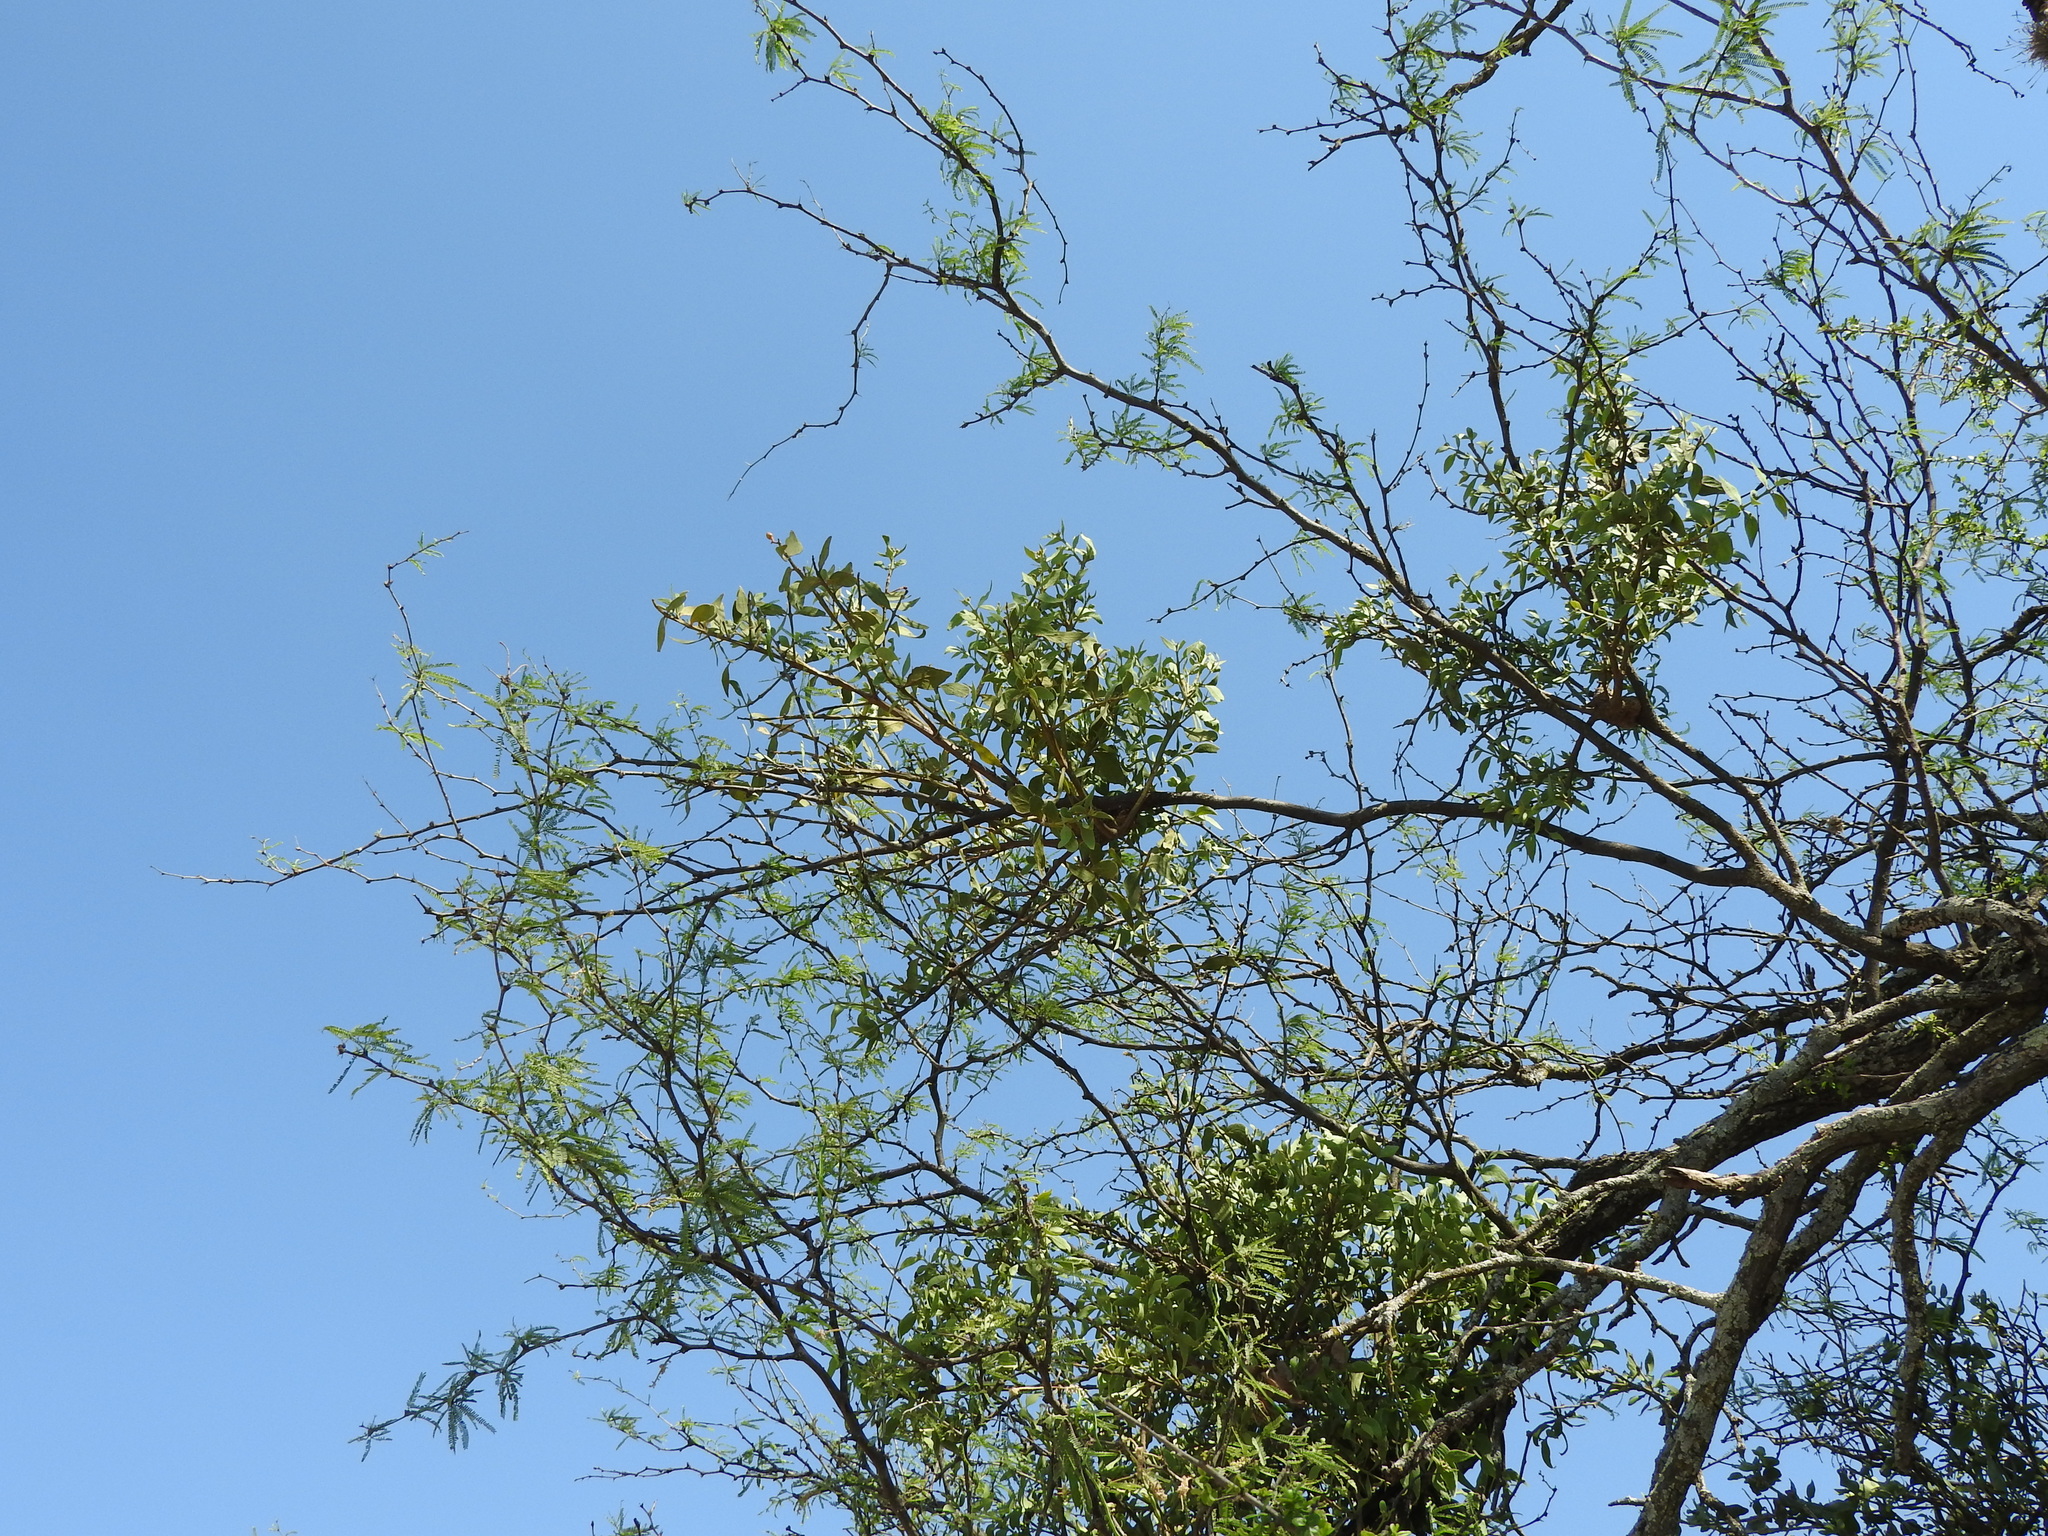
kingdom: Plantae
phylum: Tracheophyta
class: Magnoliopsida
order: Santalales
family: Loranthaceae
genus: Psittacanthus
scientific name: Psittacanthus calyculatus
